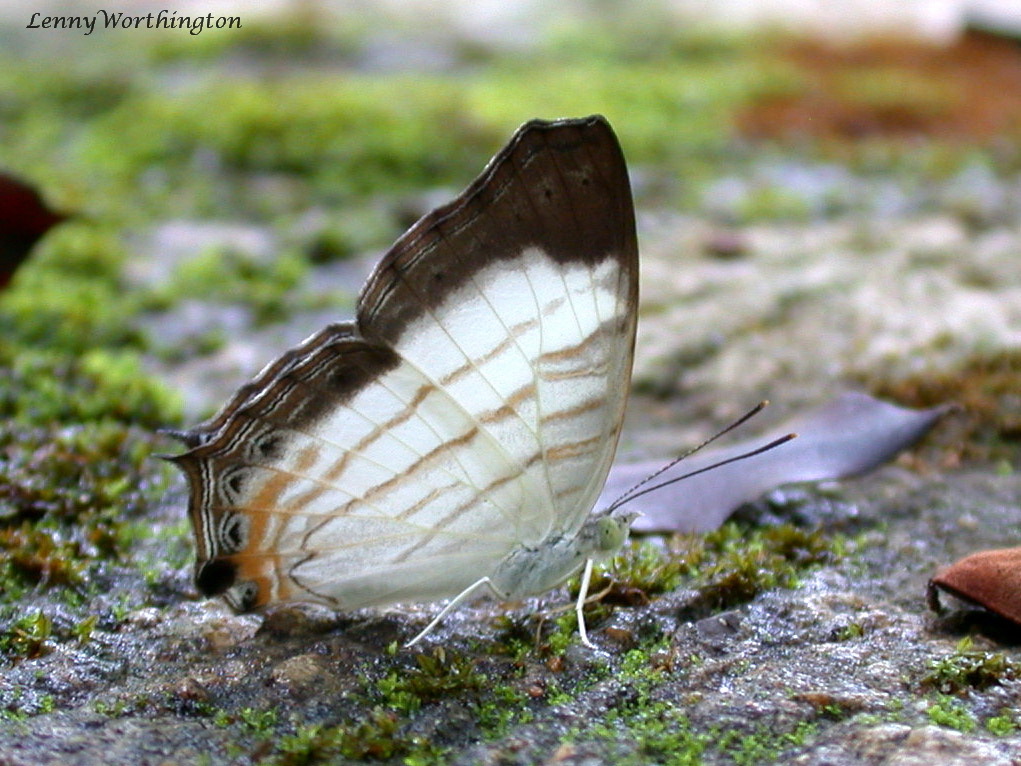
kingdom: Animalia
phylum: Arthropoda
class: Insecta
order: Lepidoptera
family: Nymphalidae
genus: Cyrestis
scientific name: Cyrestis themire
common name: Little mapwing
